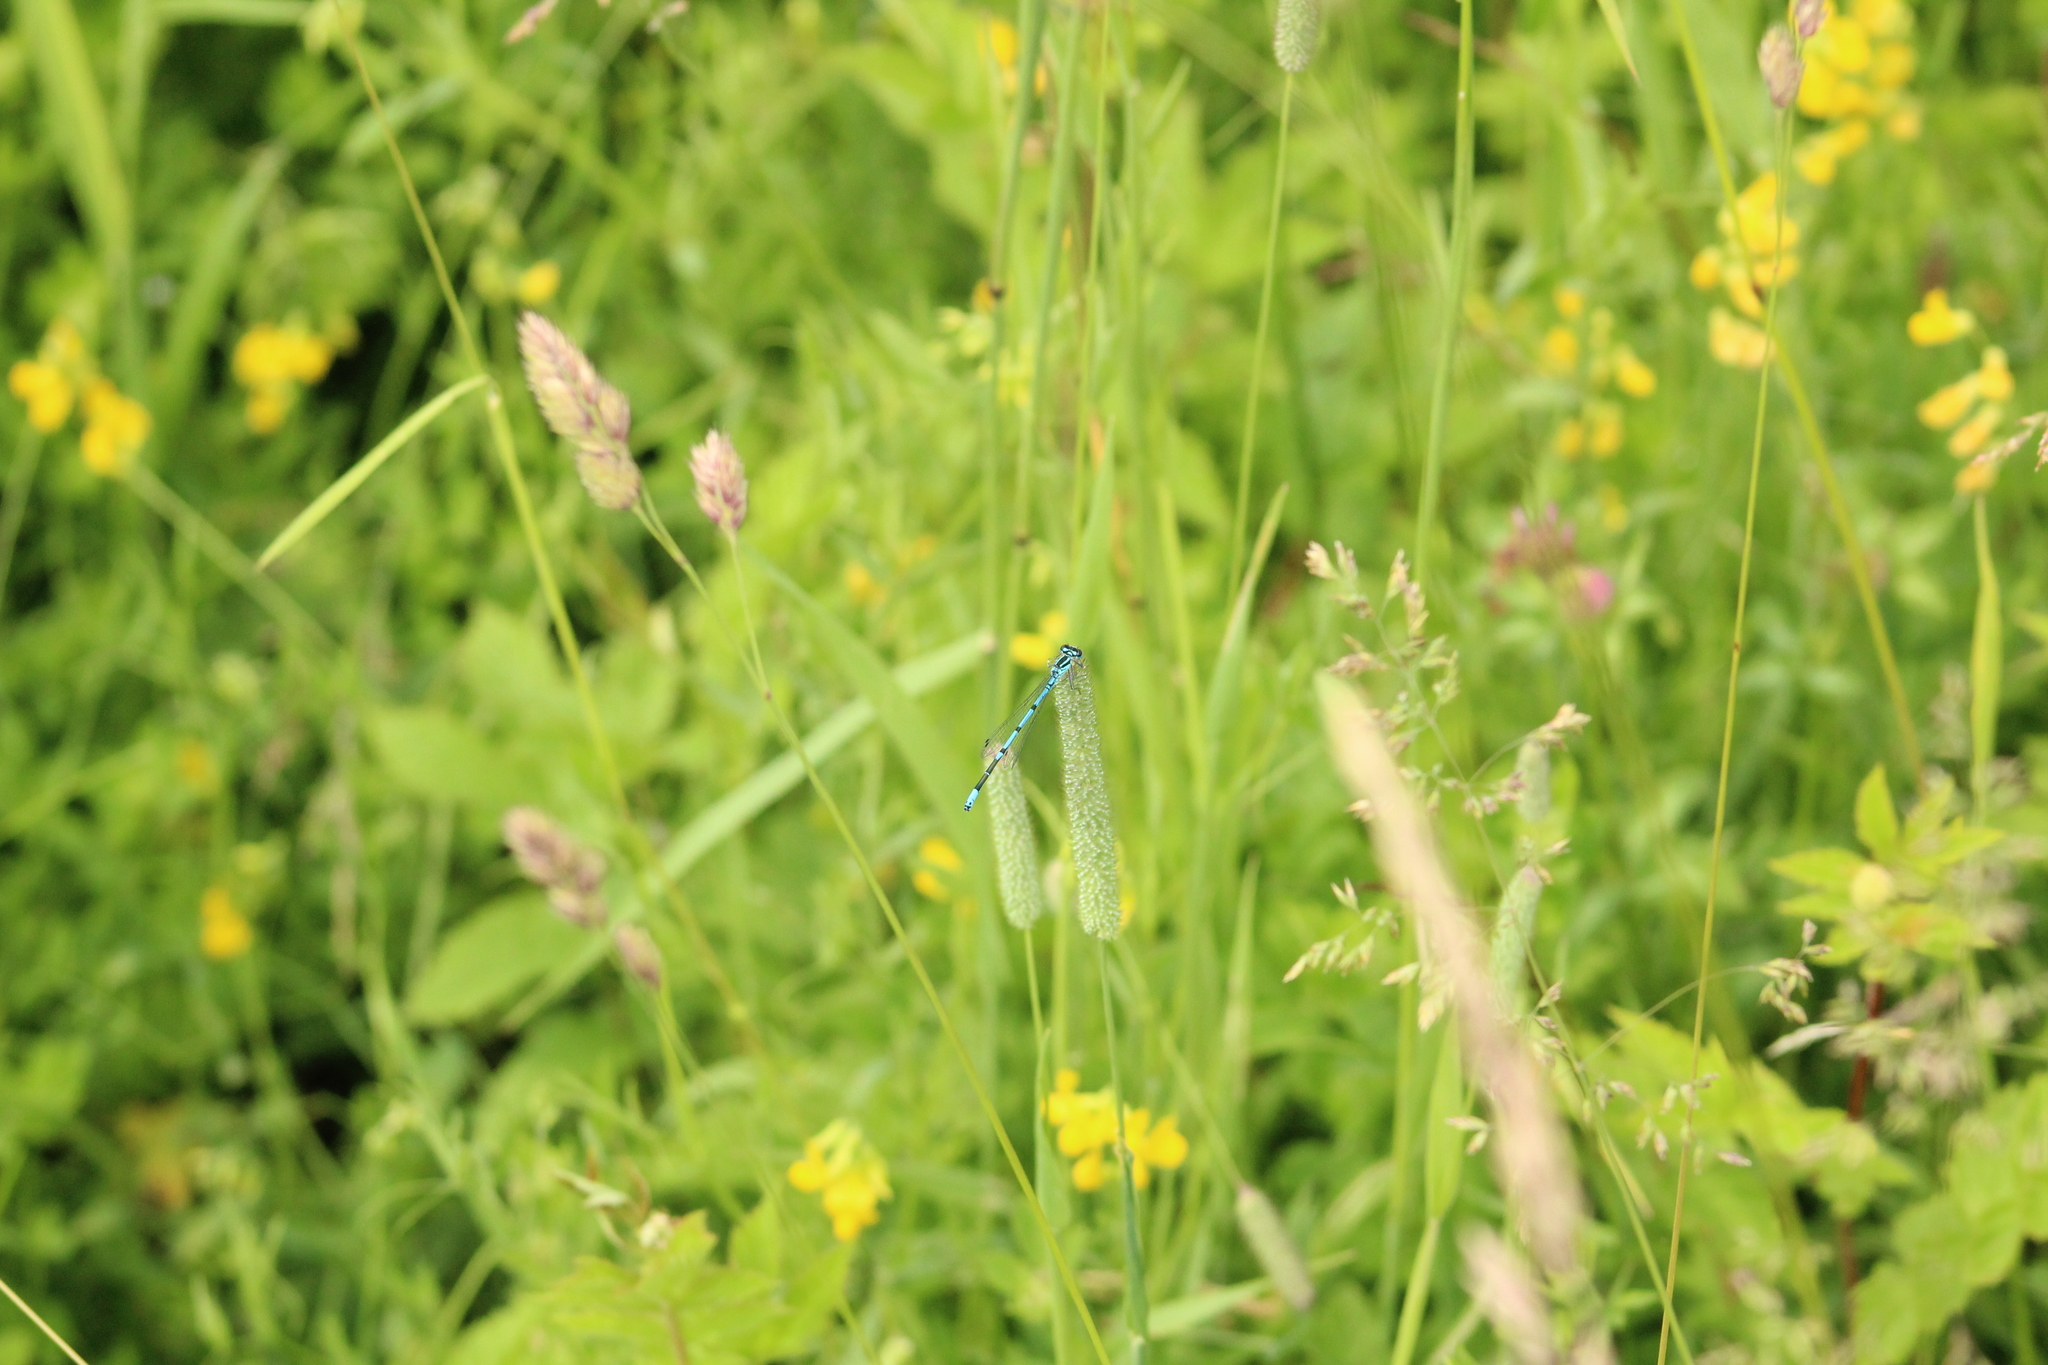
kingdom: Animalia
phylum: Arthropoda
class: Insecta
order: Odonata
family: Coenagrionidae
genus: Coenagrion
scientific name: Coenagrion puella
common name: Azure damselfly
